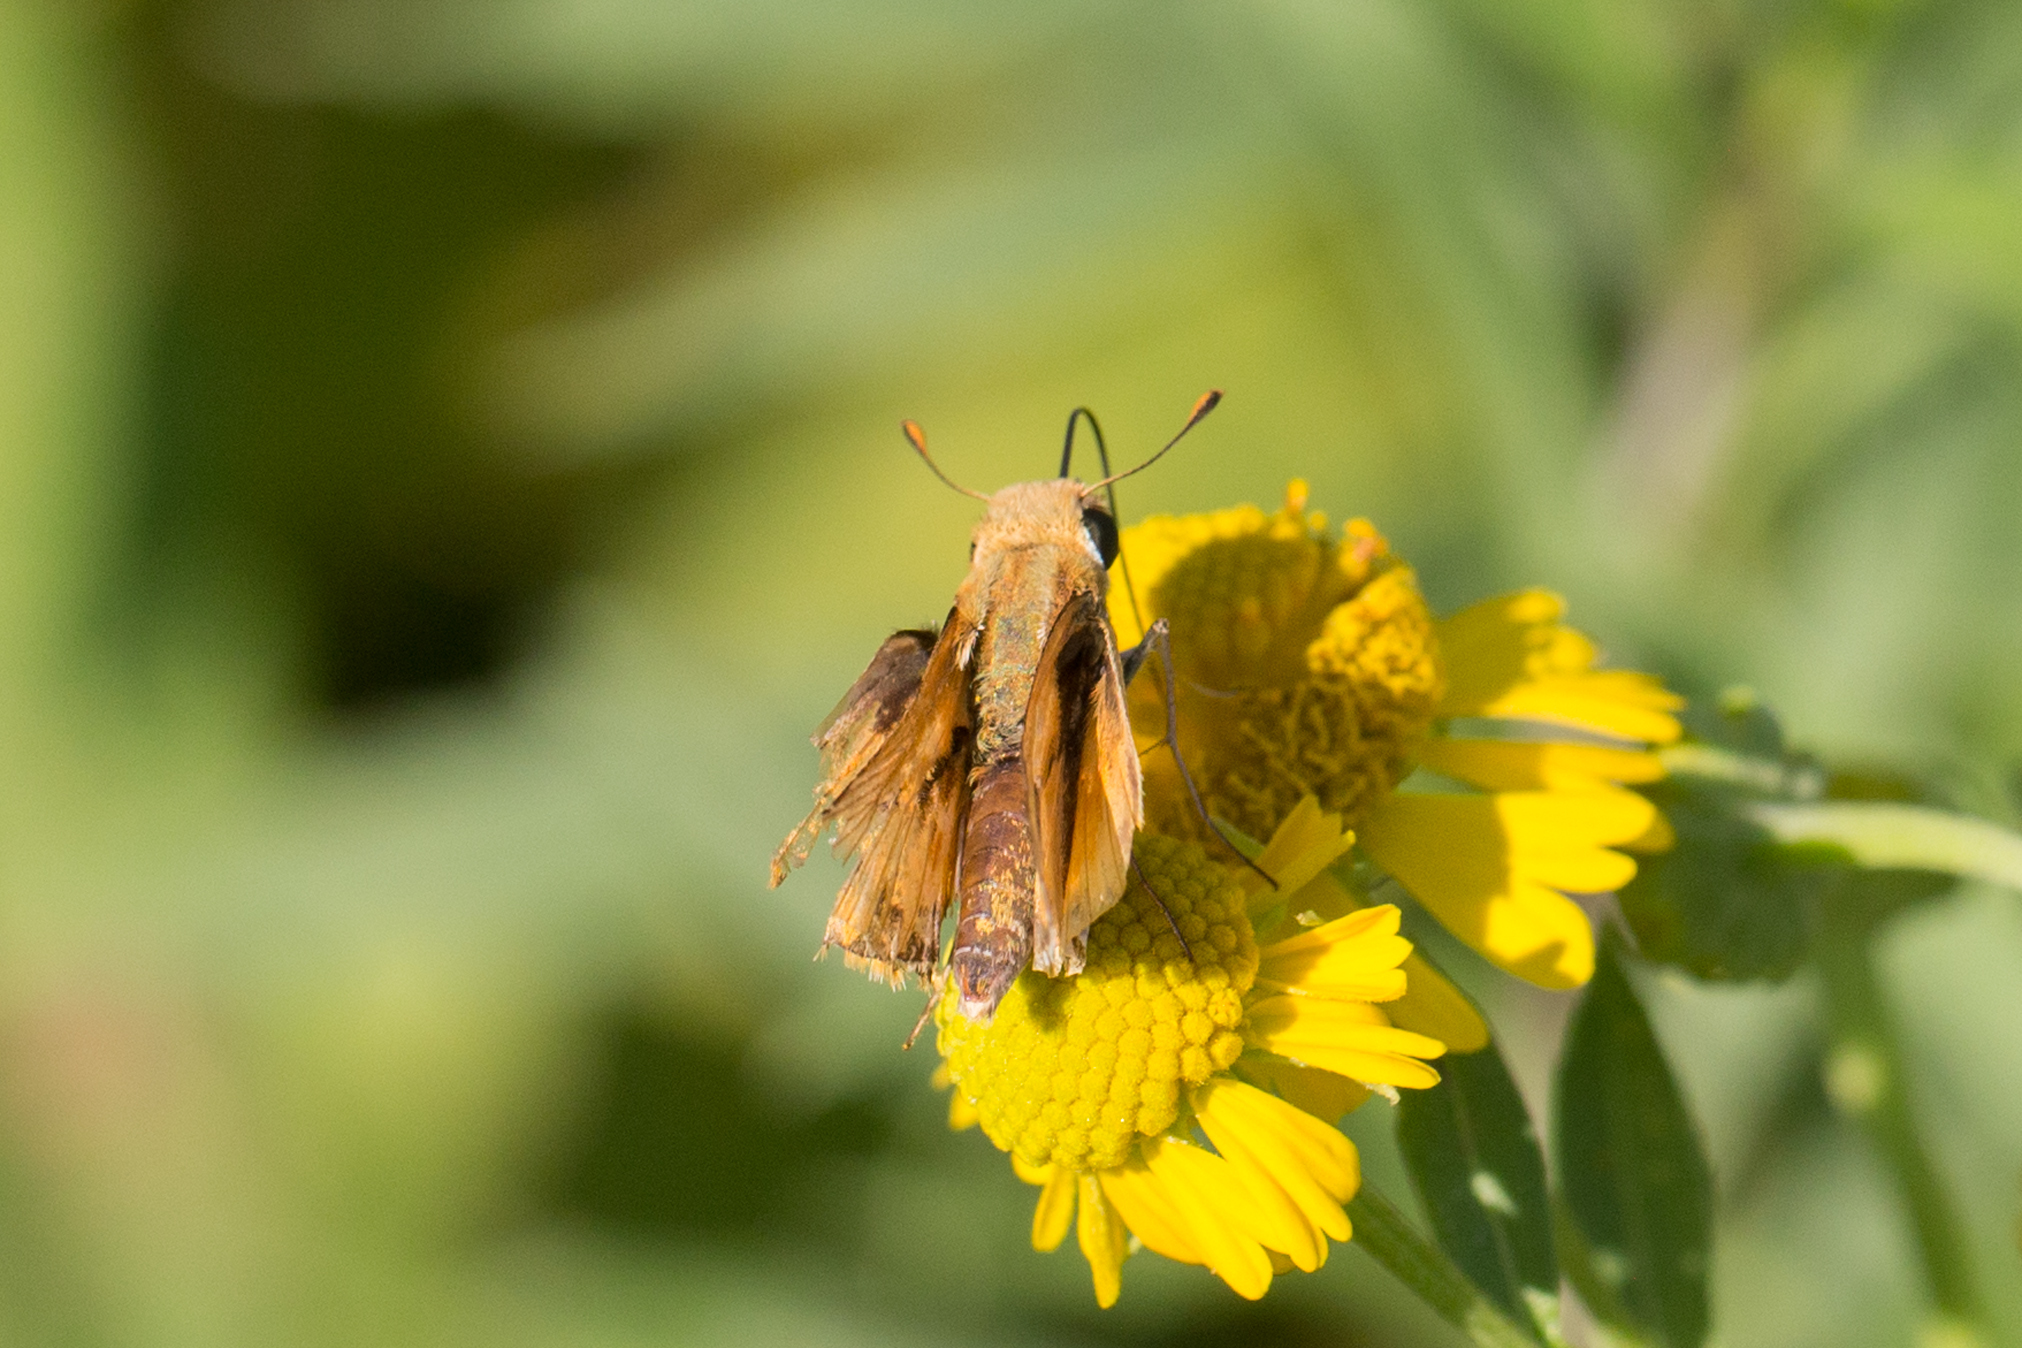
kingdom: Animalia
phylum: Arthropoda
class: Insecta
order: Lepidoptera
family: Hesperiidae
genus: Hylephila
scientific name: Hylephila phyleus
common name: Fiery skipper
